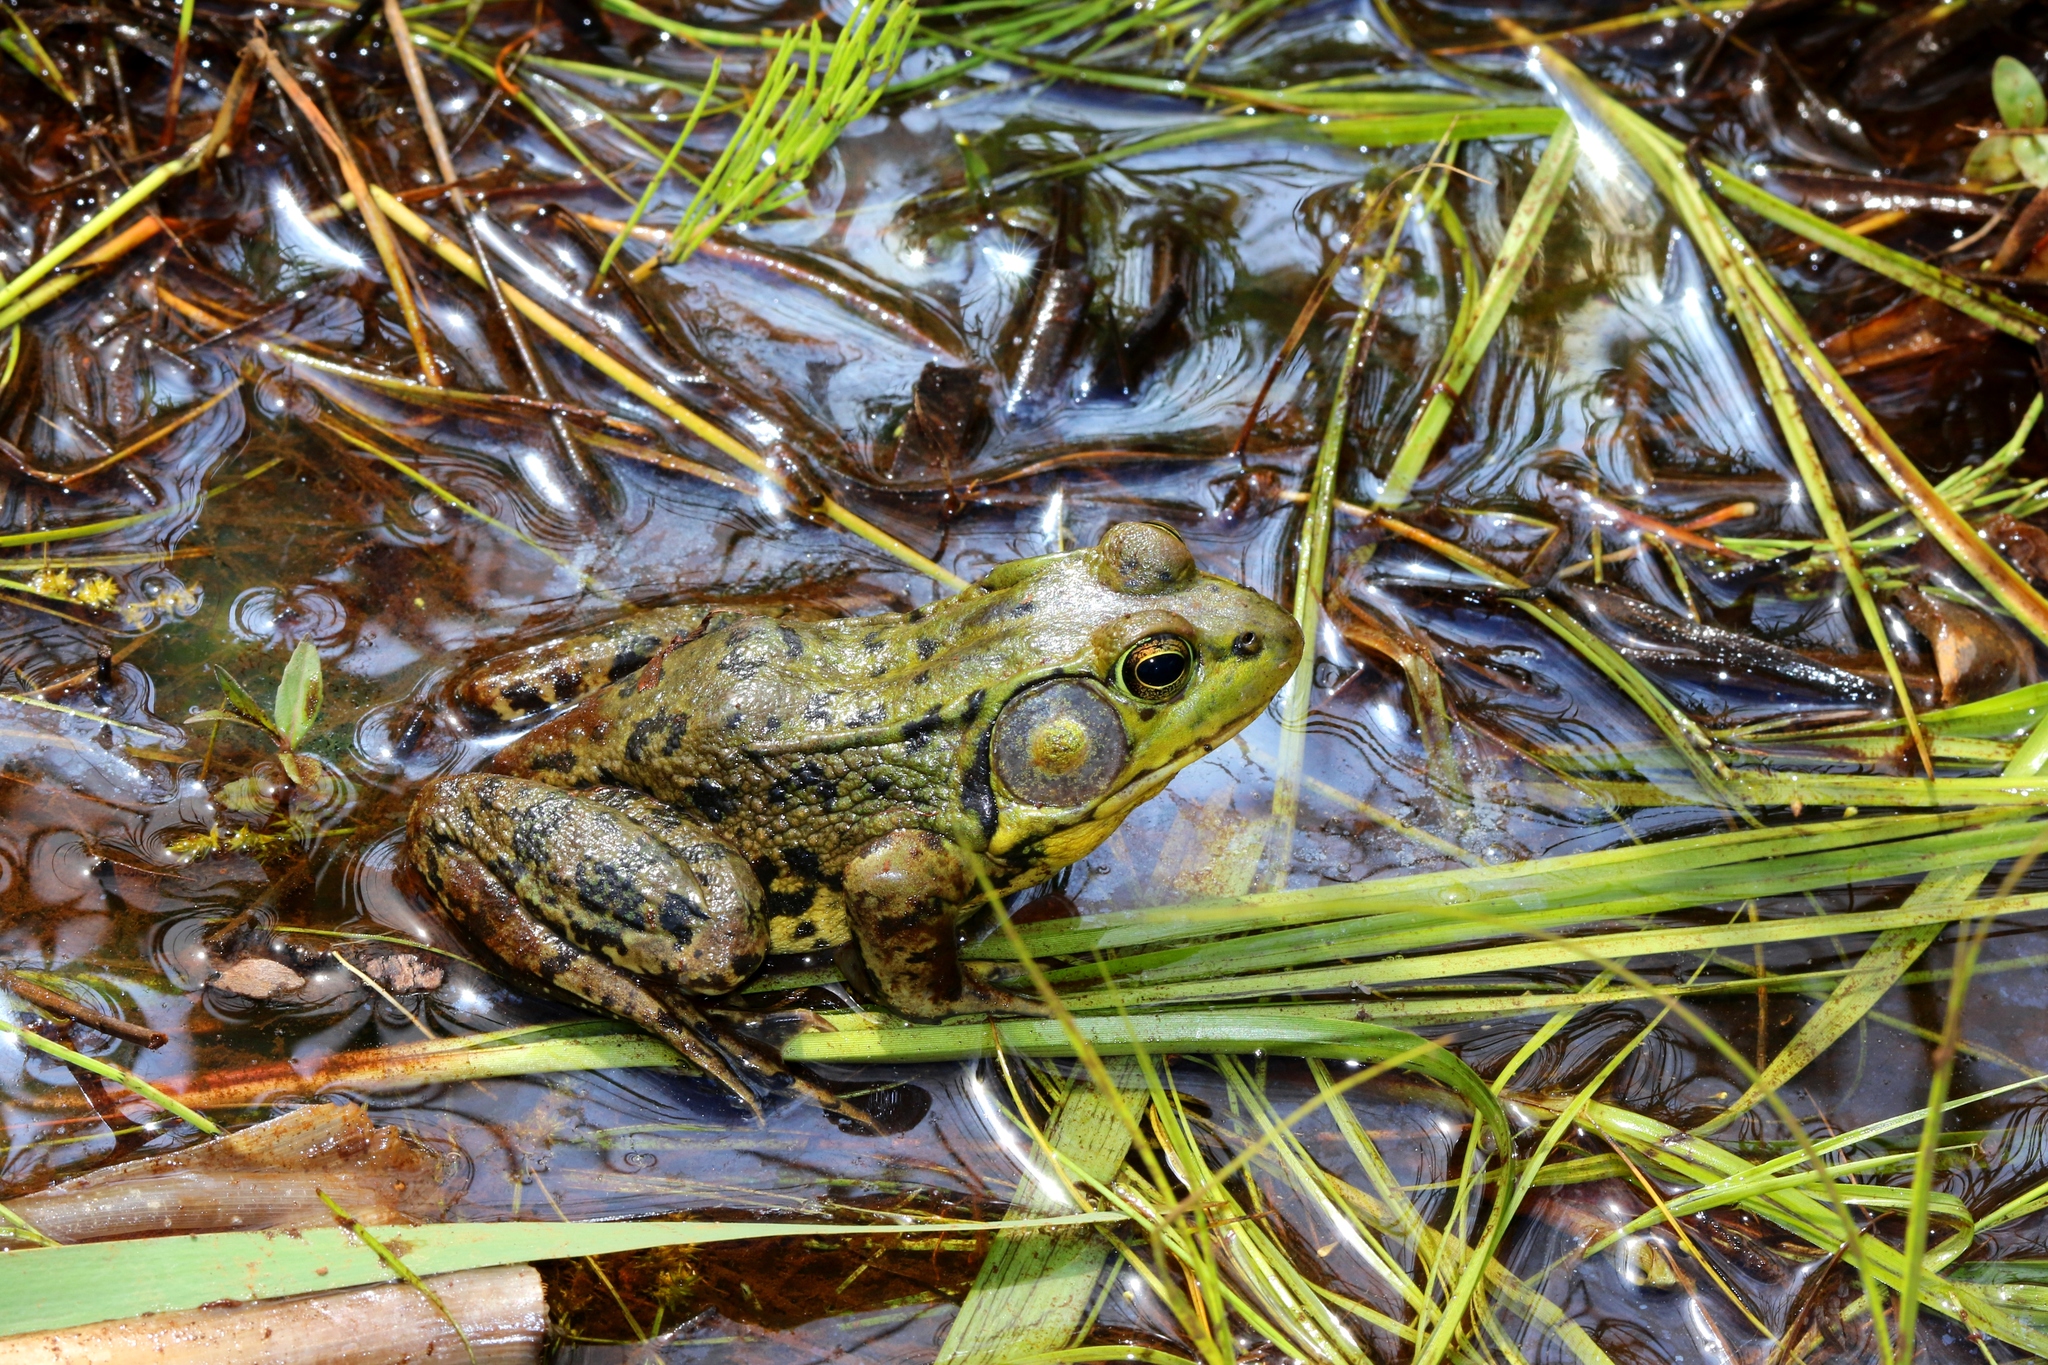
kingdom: Animalia
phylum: Chordata
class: Amphibia
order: Anura
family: Ranidae
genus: Lithobates
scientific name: Lithobates clamitans
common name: Green frog
